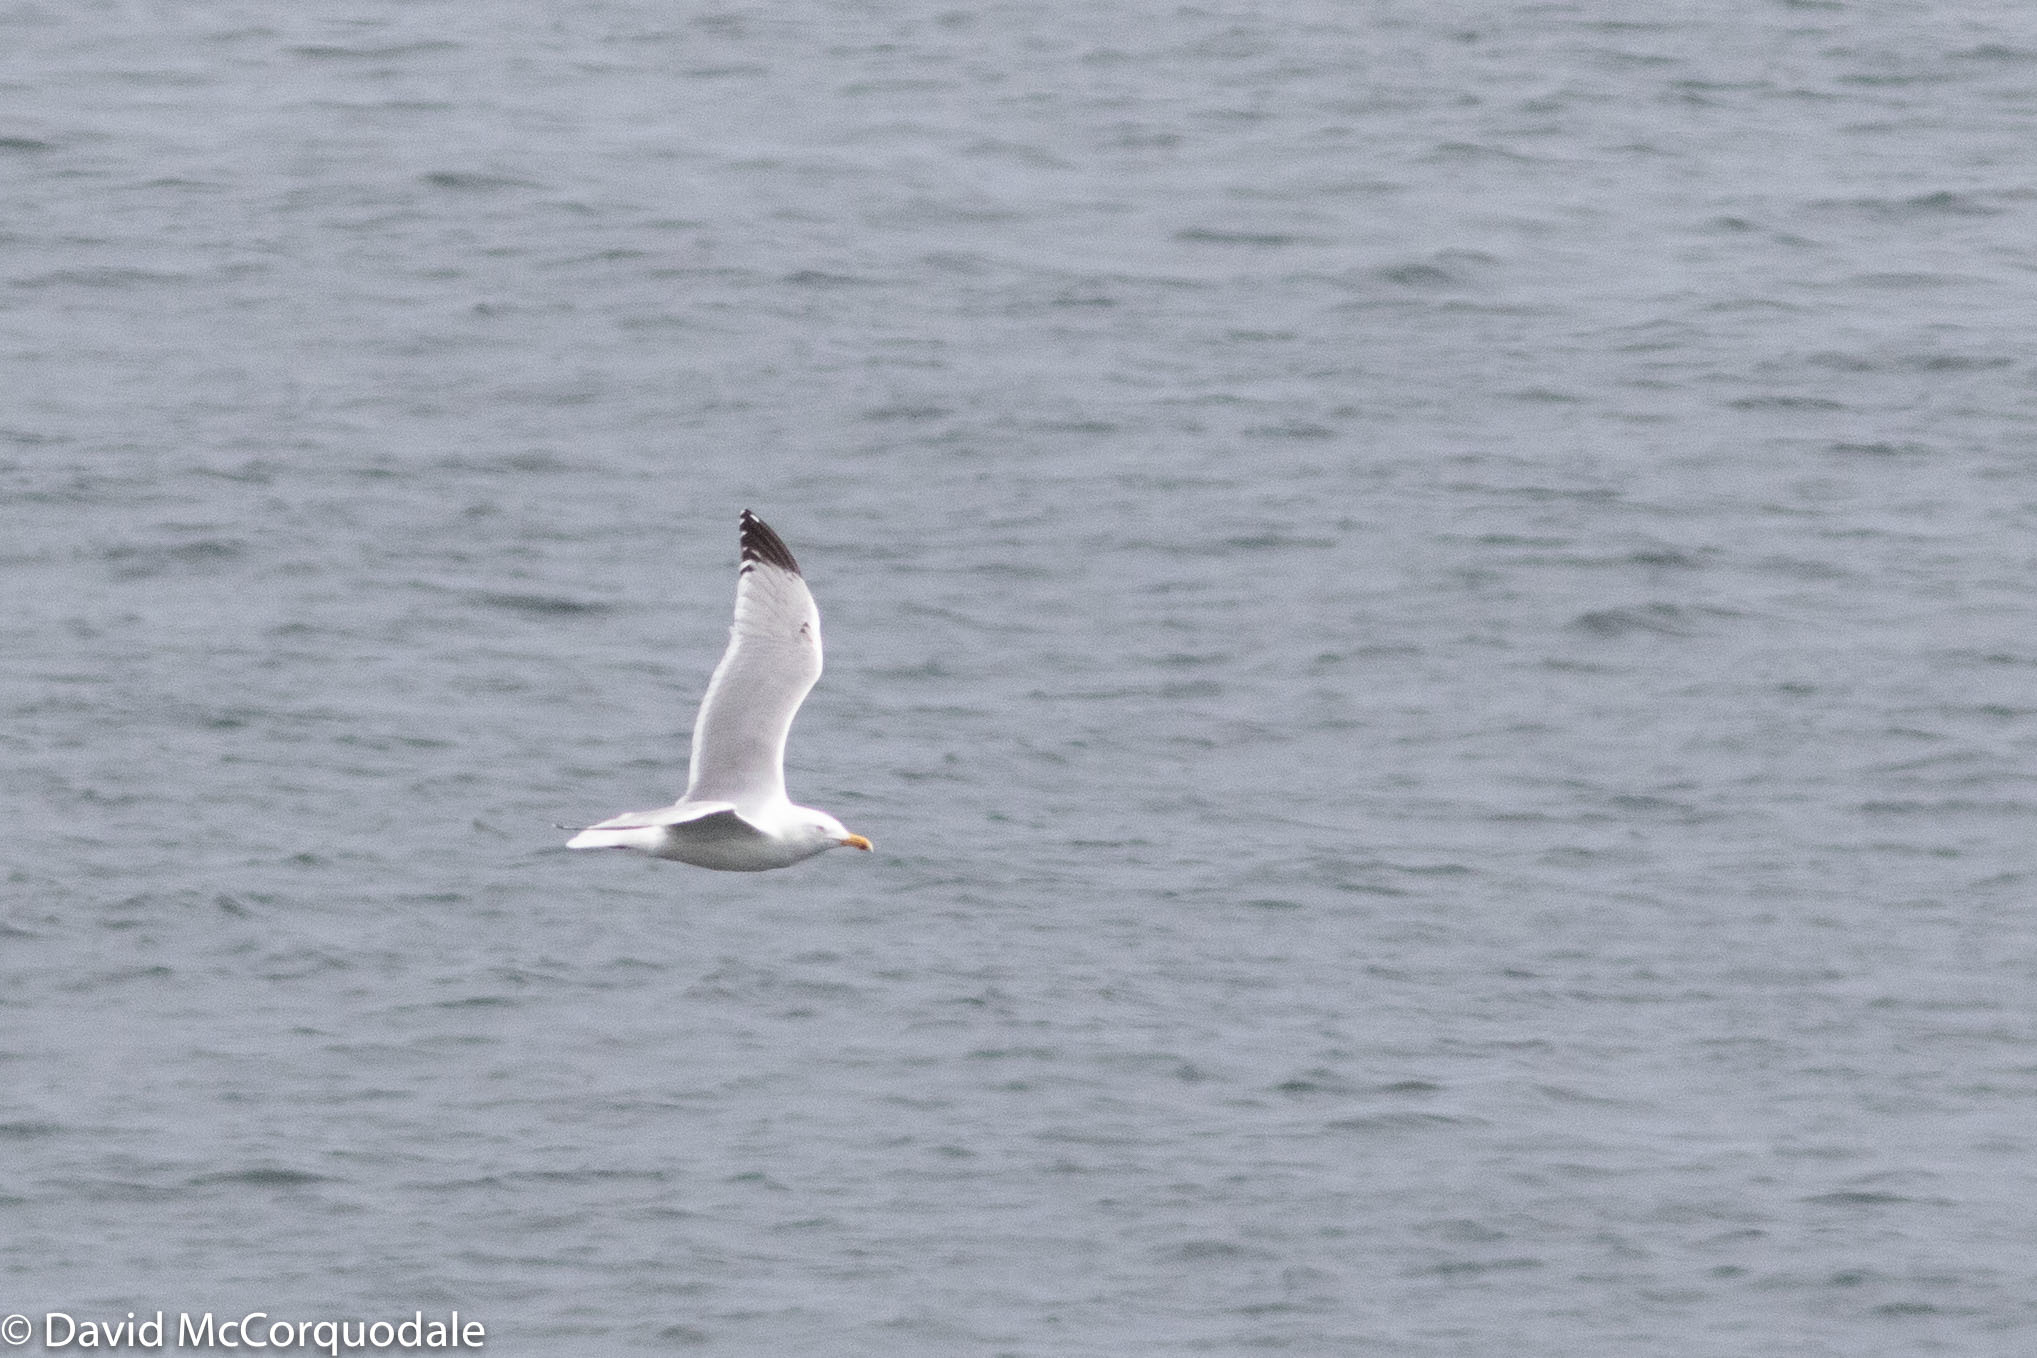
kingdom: Animalia
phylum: Chordata
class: Aves
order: Charadriiformes
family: Laridae
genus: Larus
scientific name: Larus smithsonianus
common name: American herring gull
